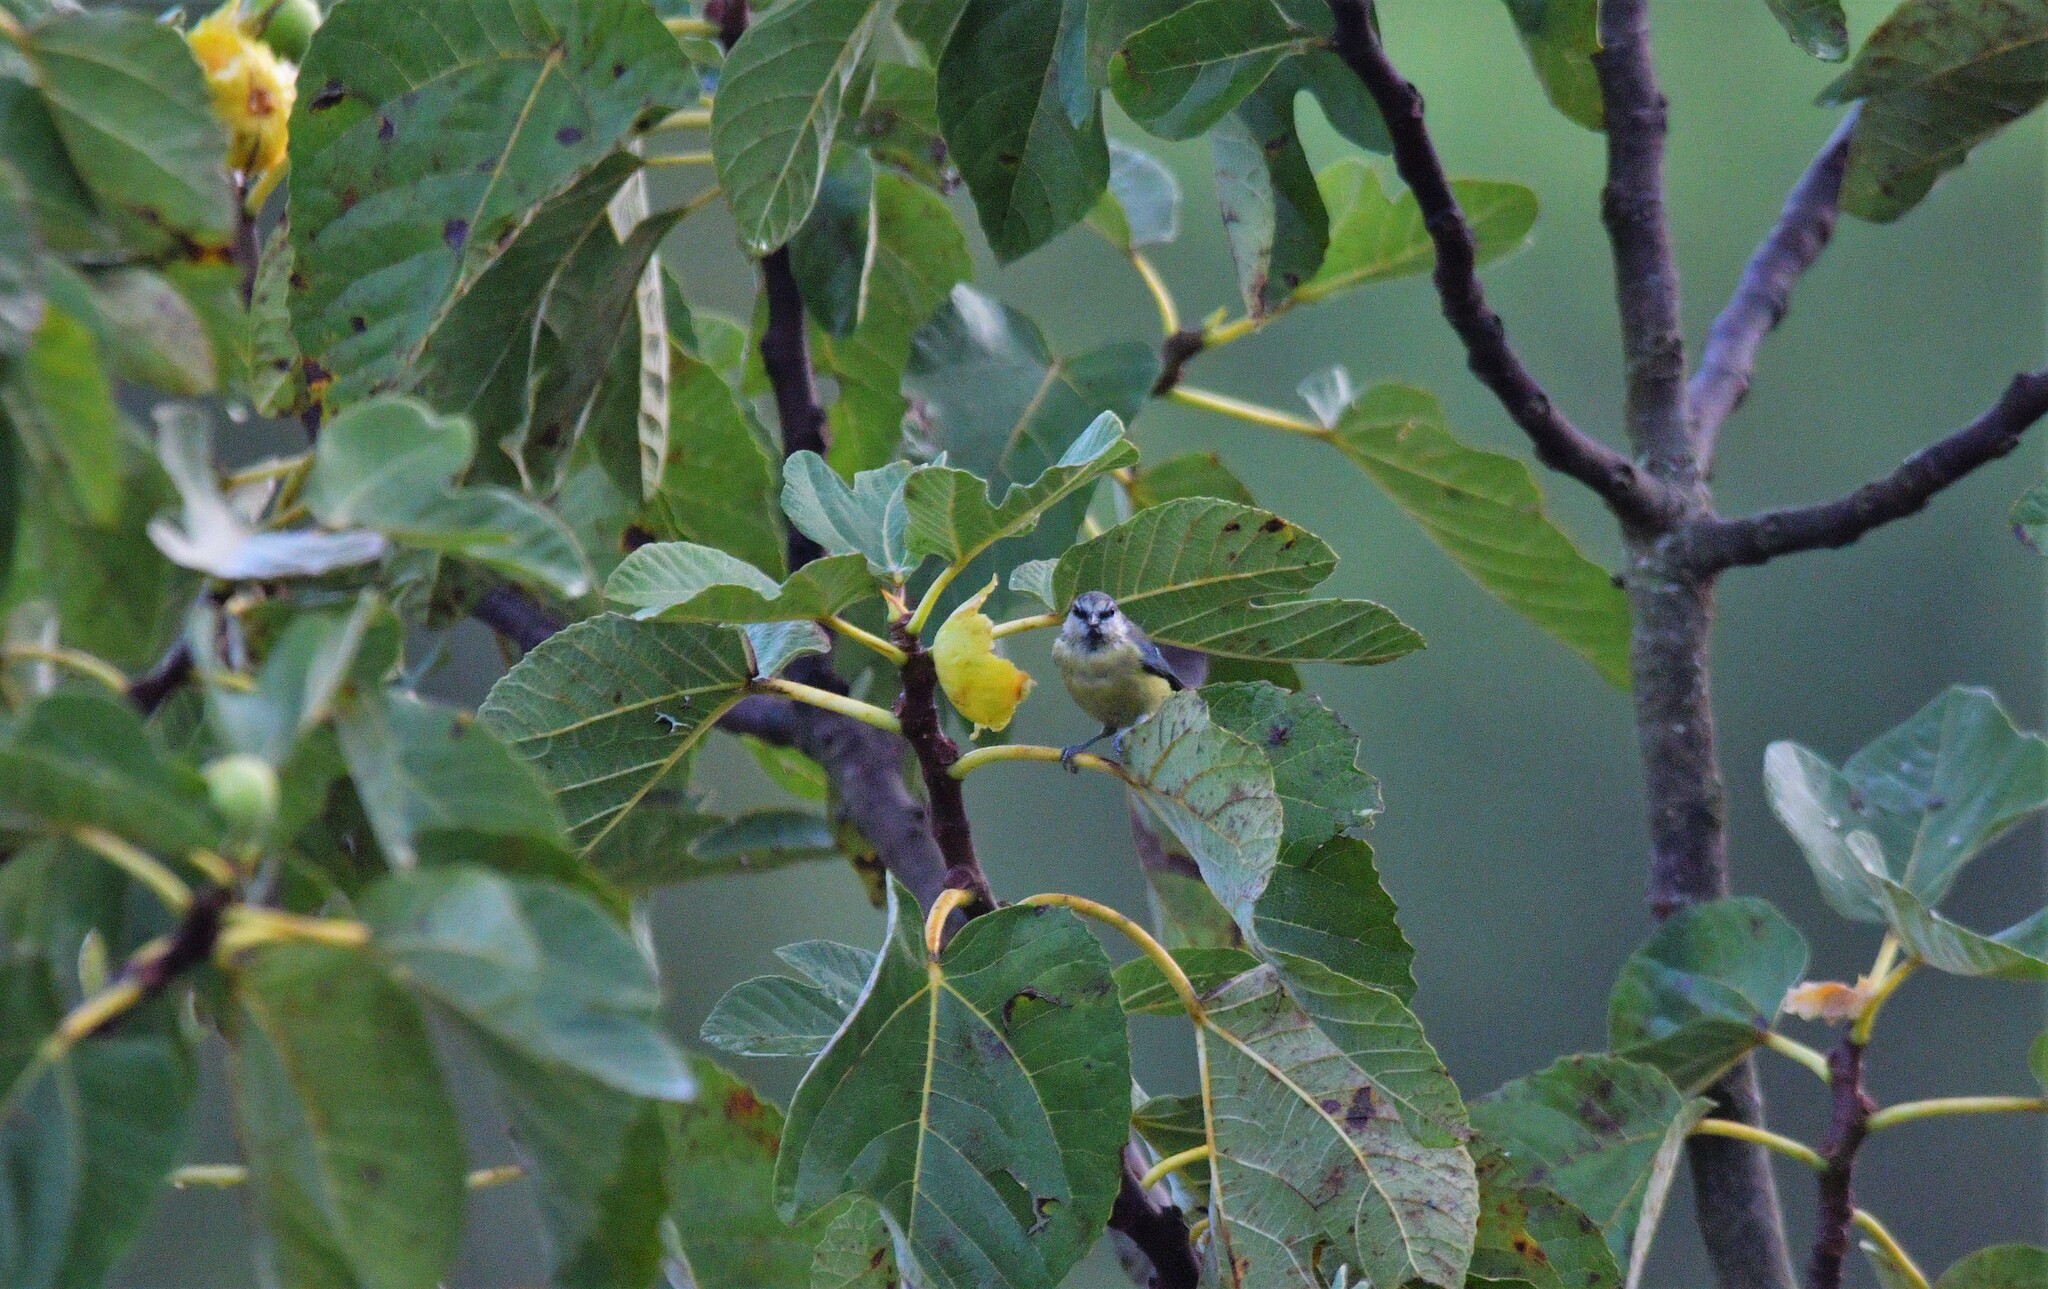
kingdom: Animalia
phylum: Chordata
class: Aves
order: Passeriformes
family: Paridae
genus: Cyanistes
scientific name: Cyanistes caeruleus
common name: Eurasian blue tit
